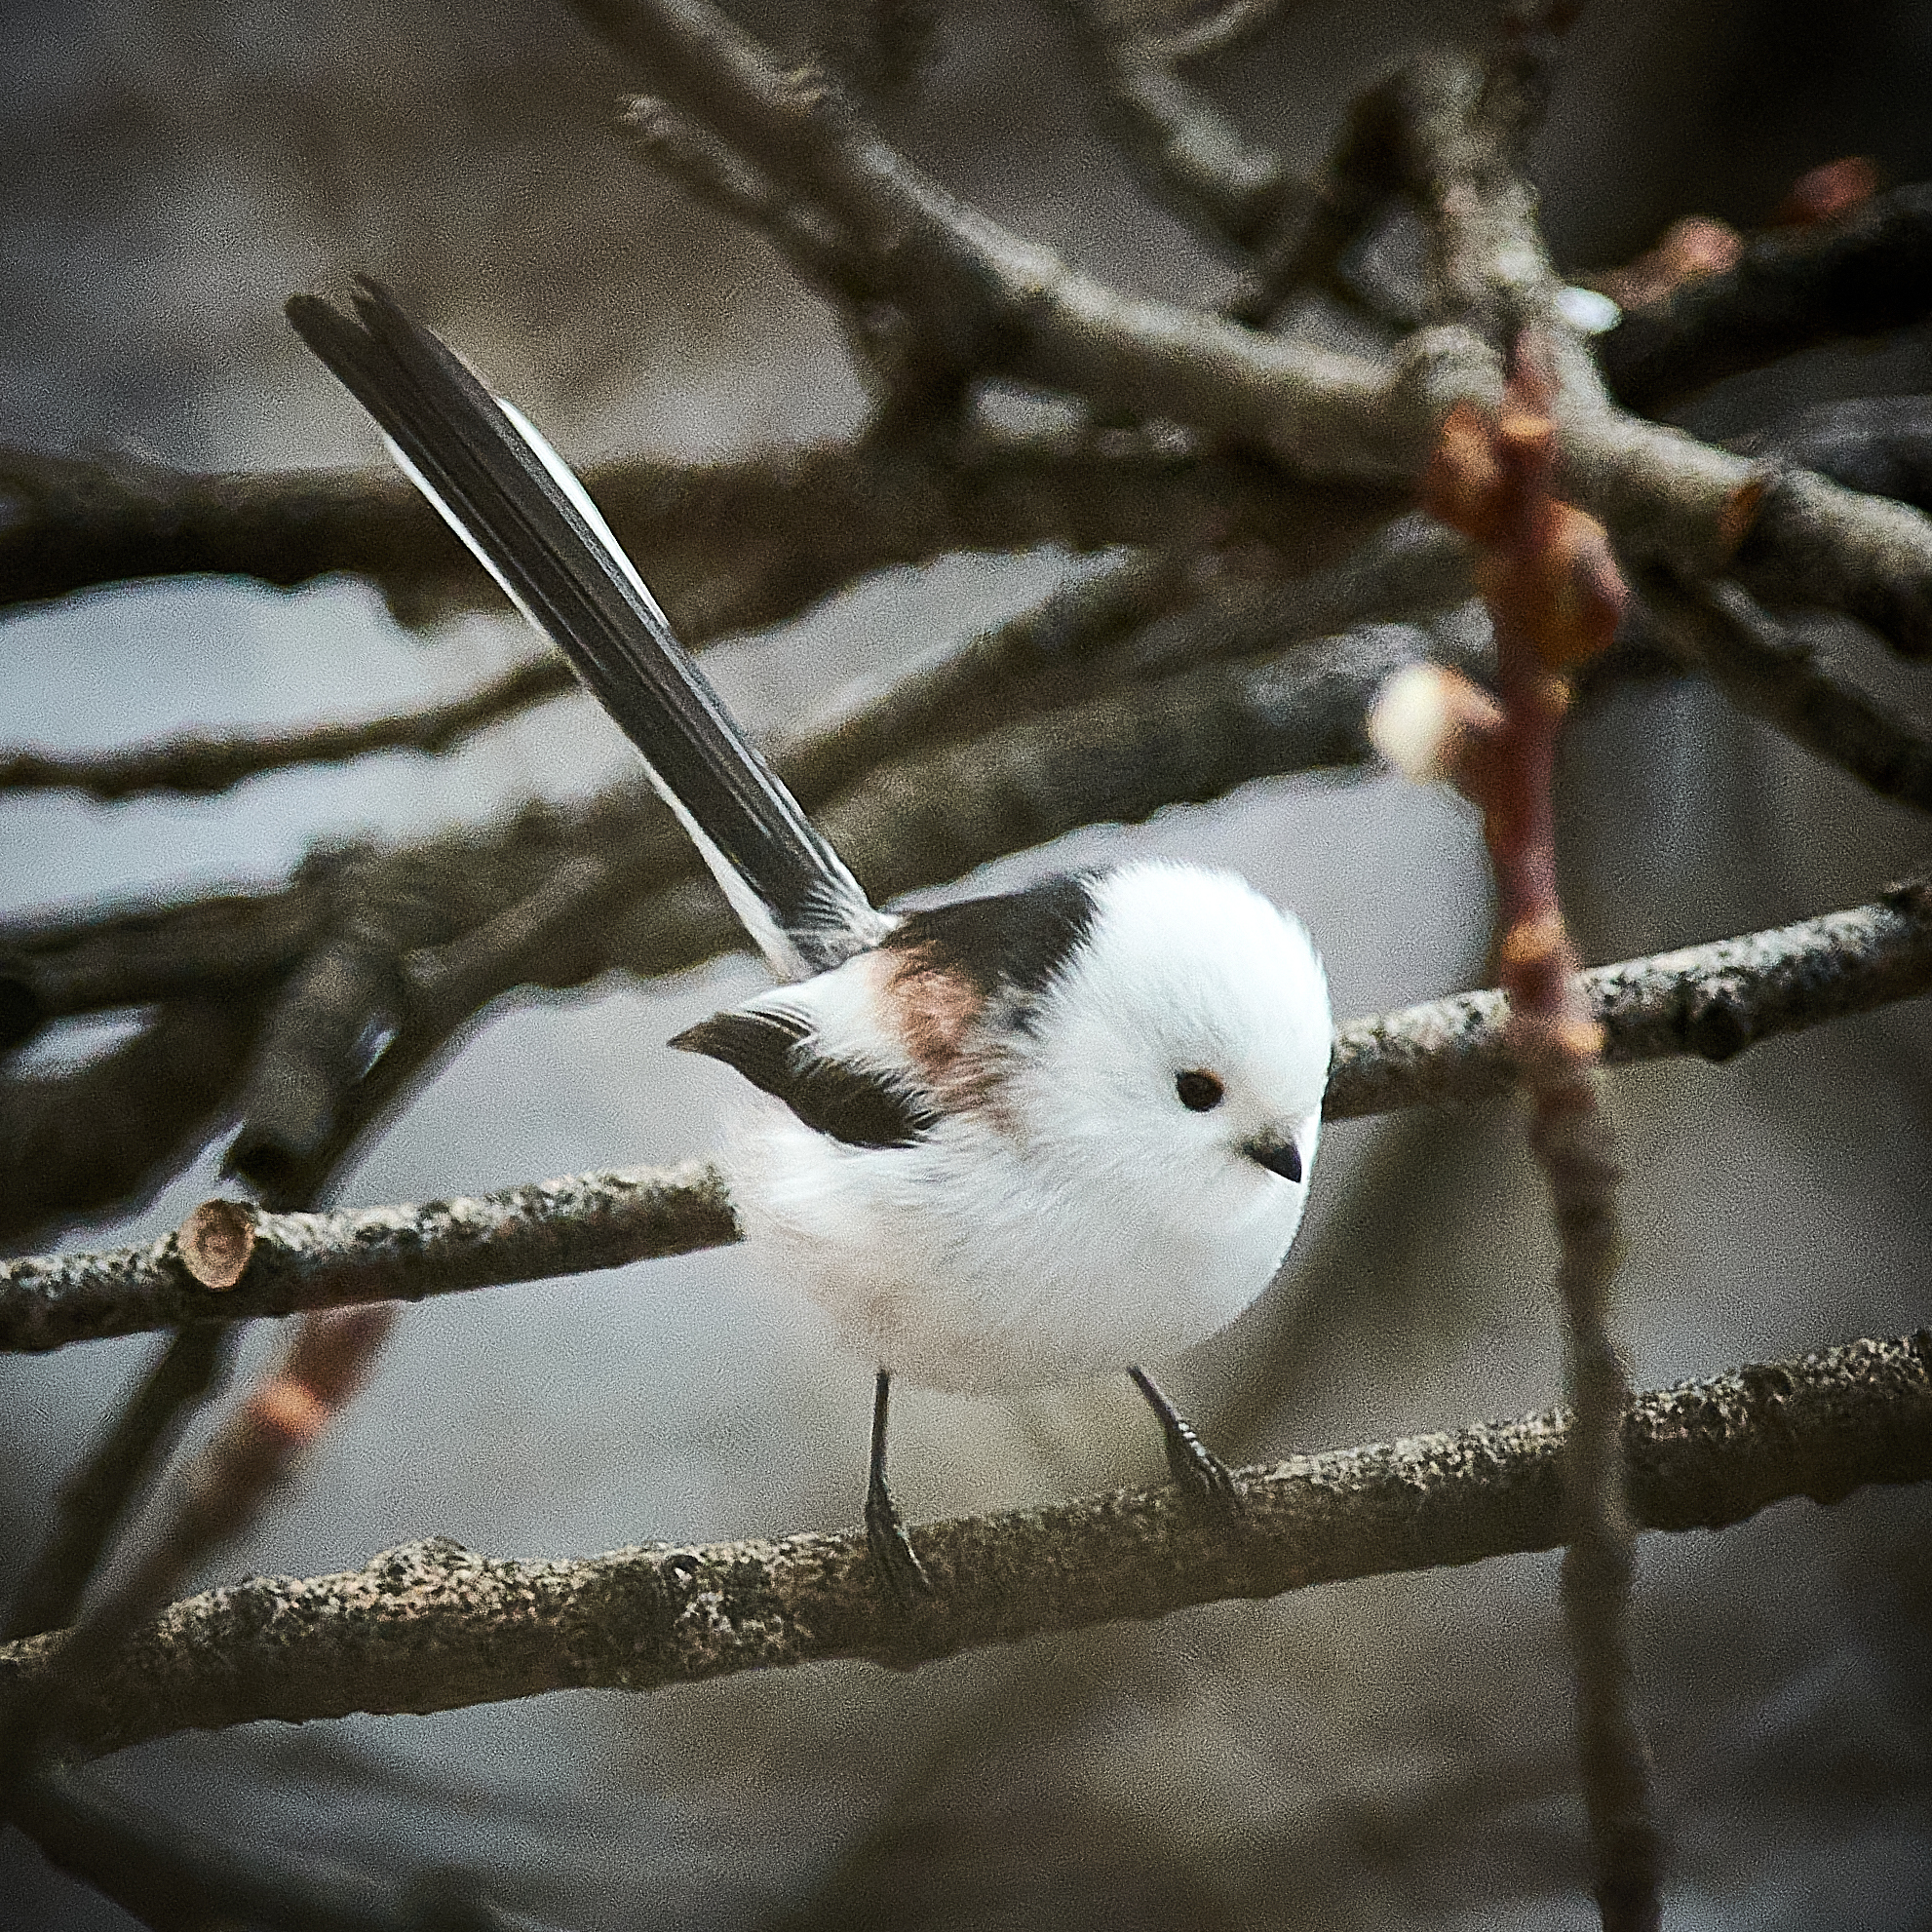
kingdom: Animalia
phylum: Chordata
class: Aves
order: Passeriformes
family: Aegithalidae
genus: Aegithalos
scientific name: Aegithalos caudatus
